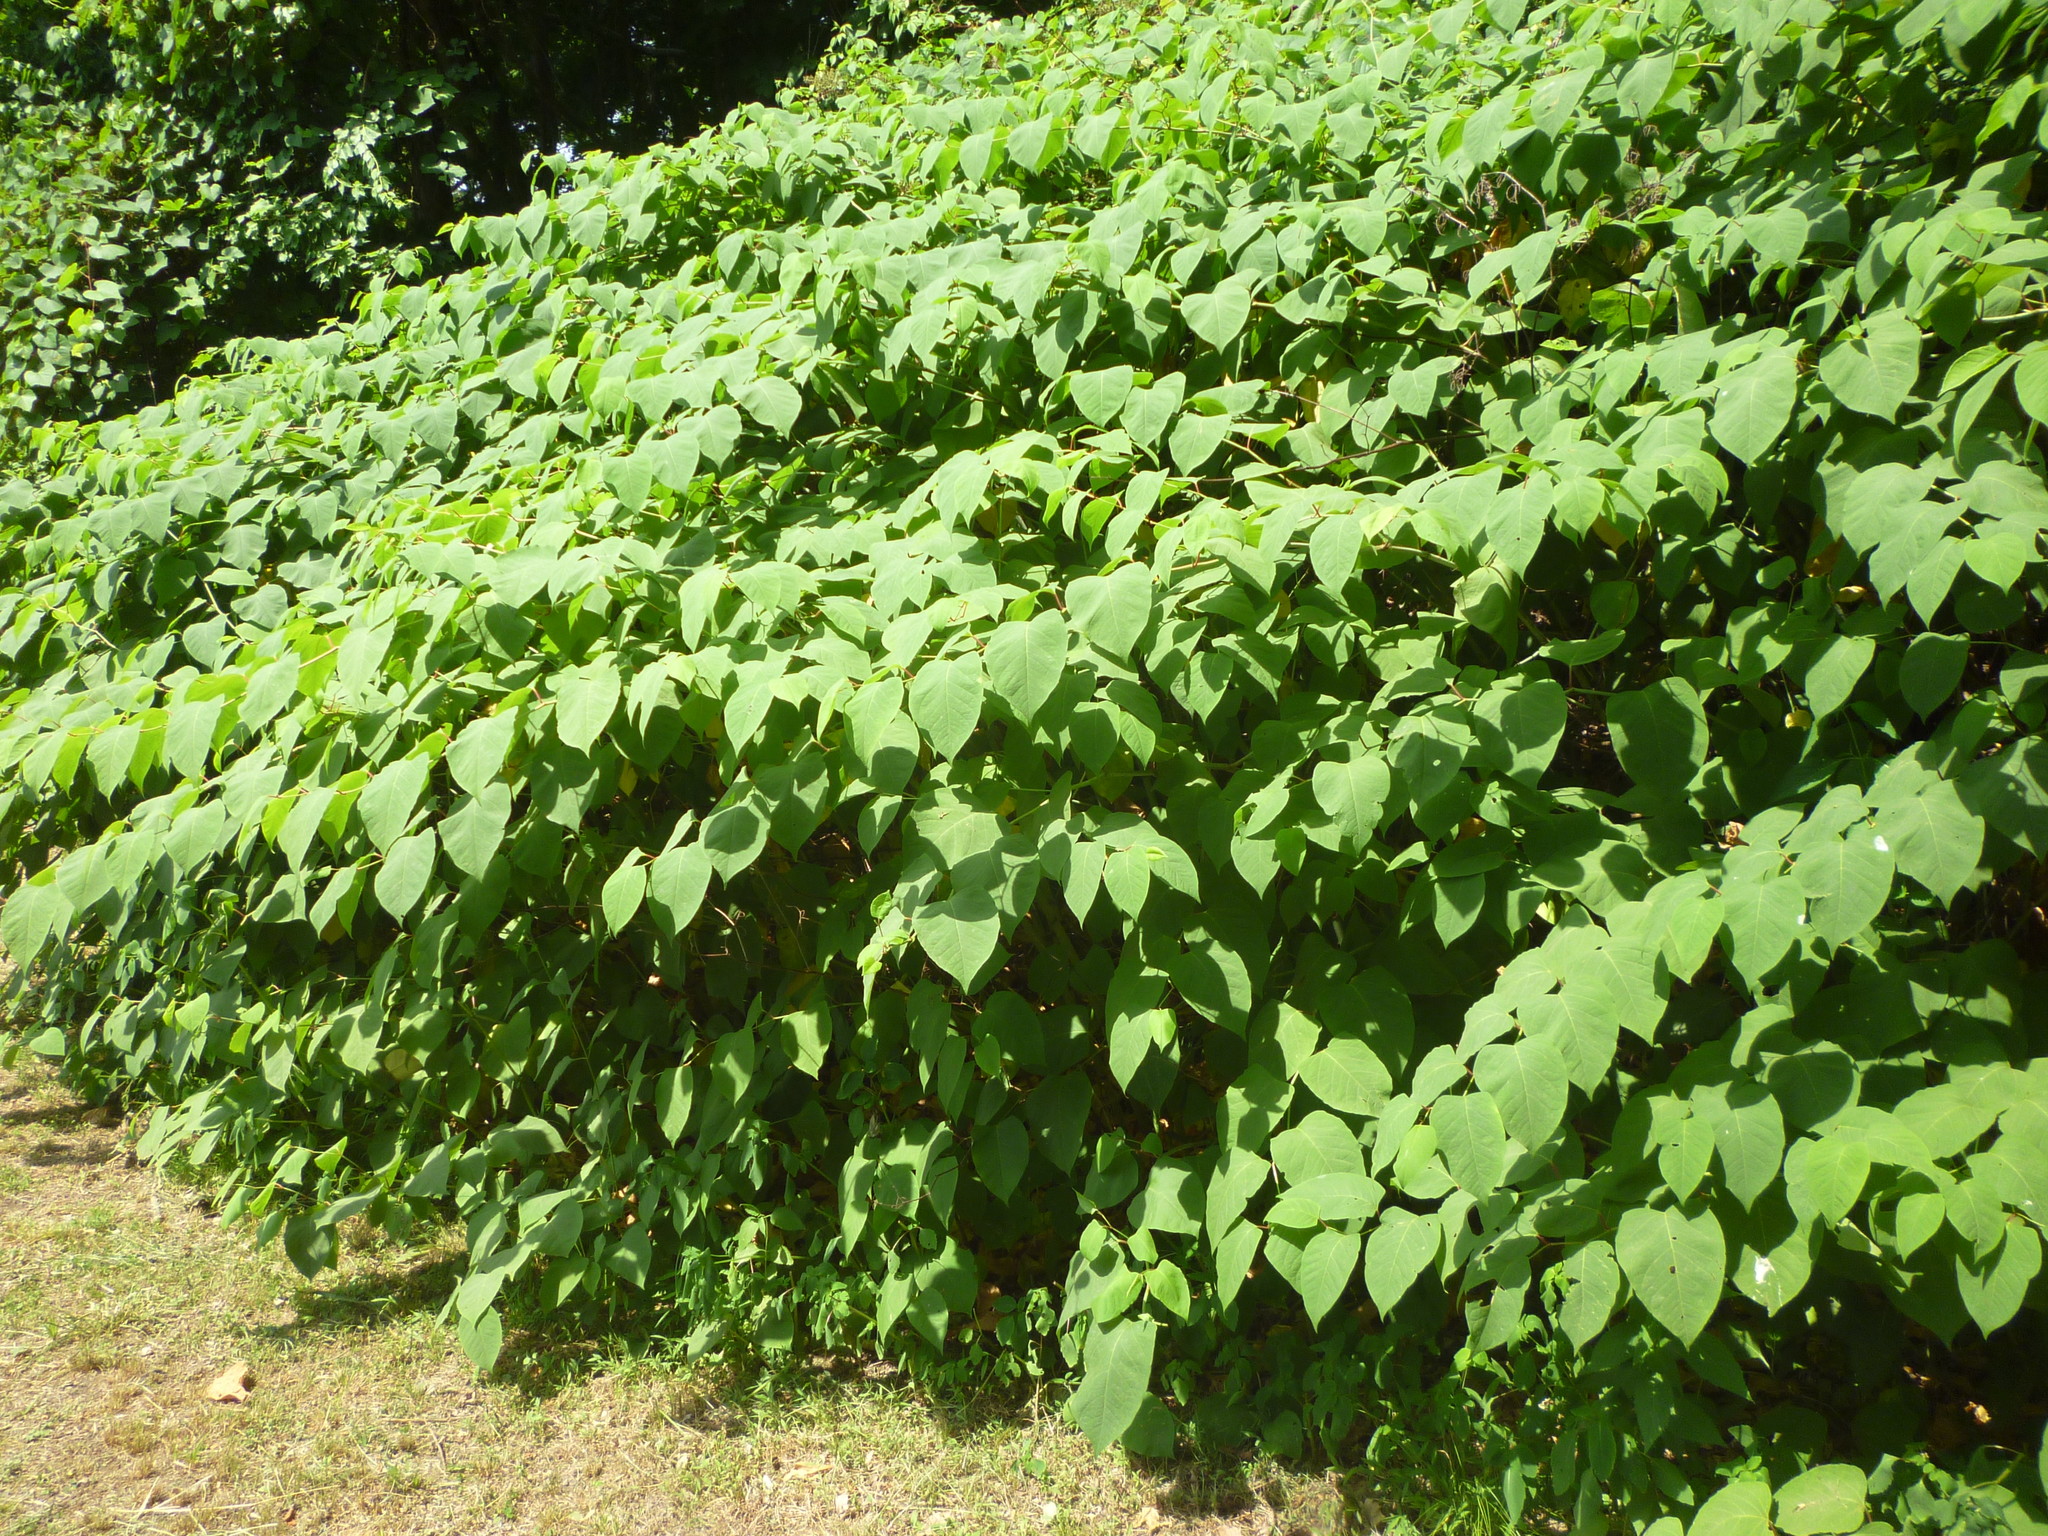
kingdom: Plantae
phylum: Tracheophyta
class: Magnoliopsida
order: Caryophyllales
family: Polygonaceae
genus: Reynoutria
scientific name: Reynoutria japonica
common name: Japanese knotweed
